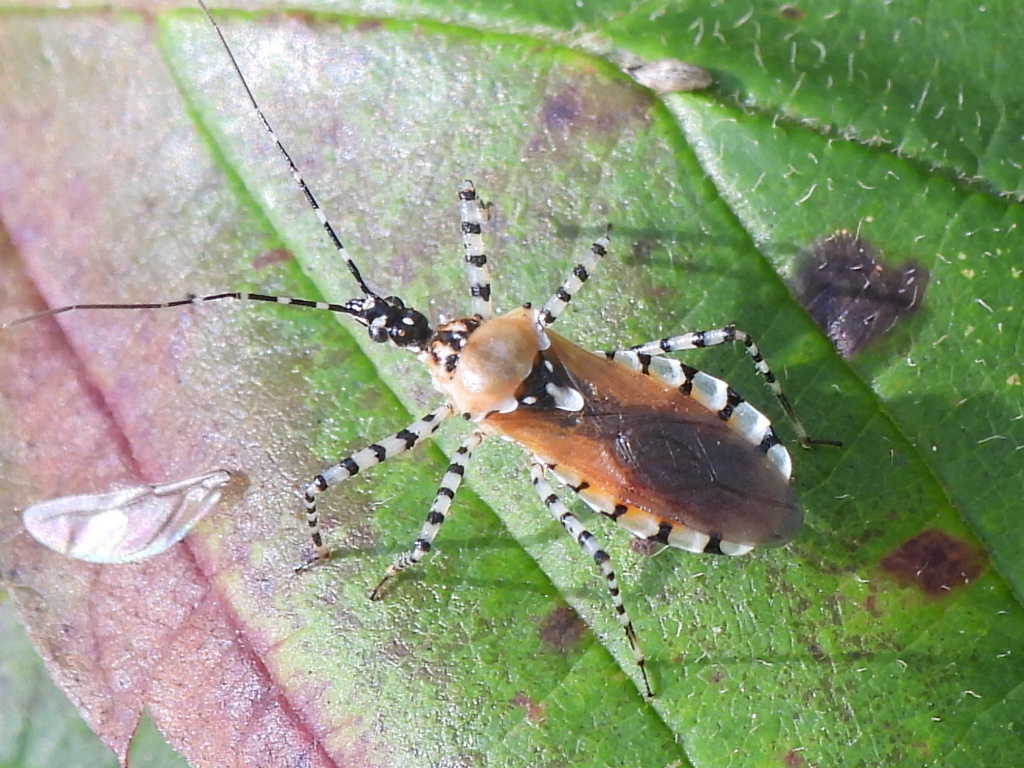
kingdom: Animalia
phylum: Arthropoda
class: Insecta
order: Hemiptera
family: Reduviidae
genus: Pselliopus
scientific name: Pselliopus cinctus
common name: Ringed assassin bug
